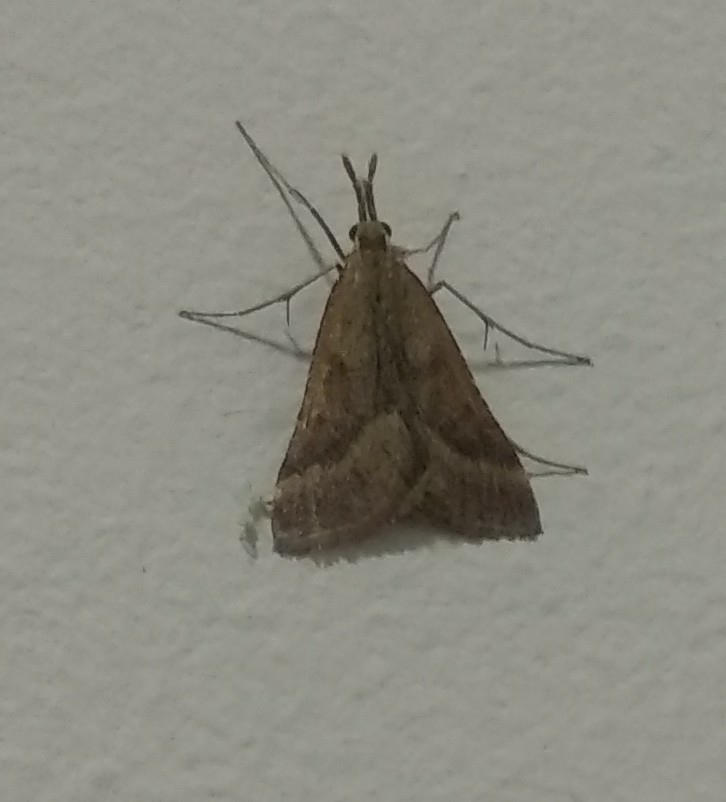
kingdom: Animalia
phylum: Arthropoda
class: Insecta
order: Lepidoptera
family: Pyralidae
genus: Synaphe
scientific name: Synaphe punctalis
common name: Long-legged tabby
